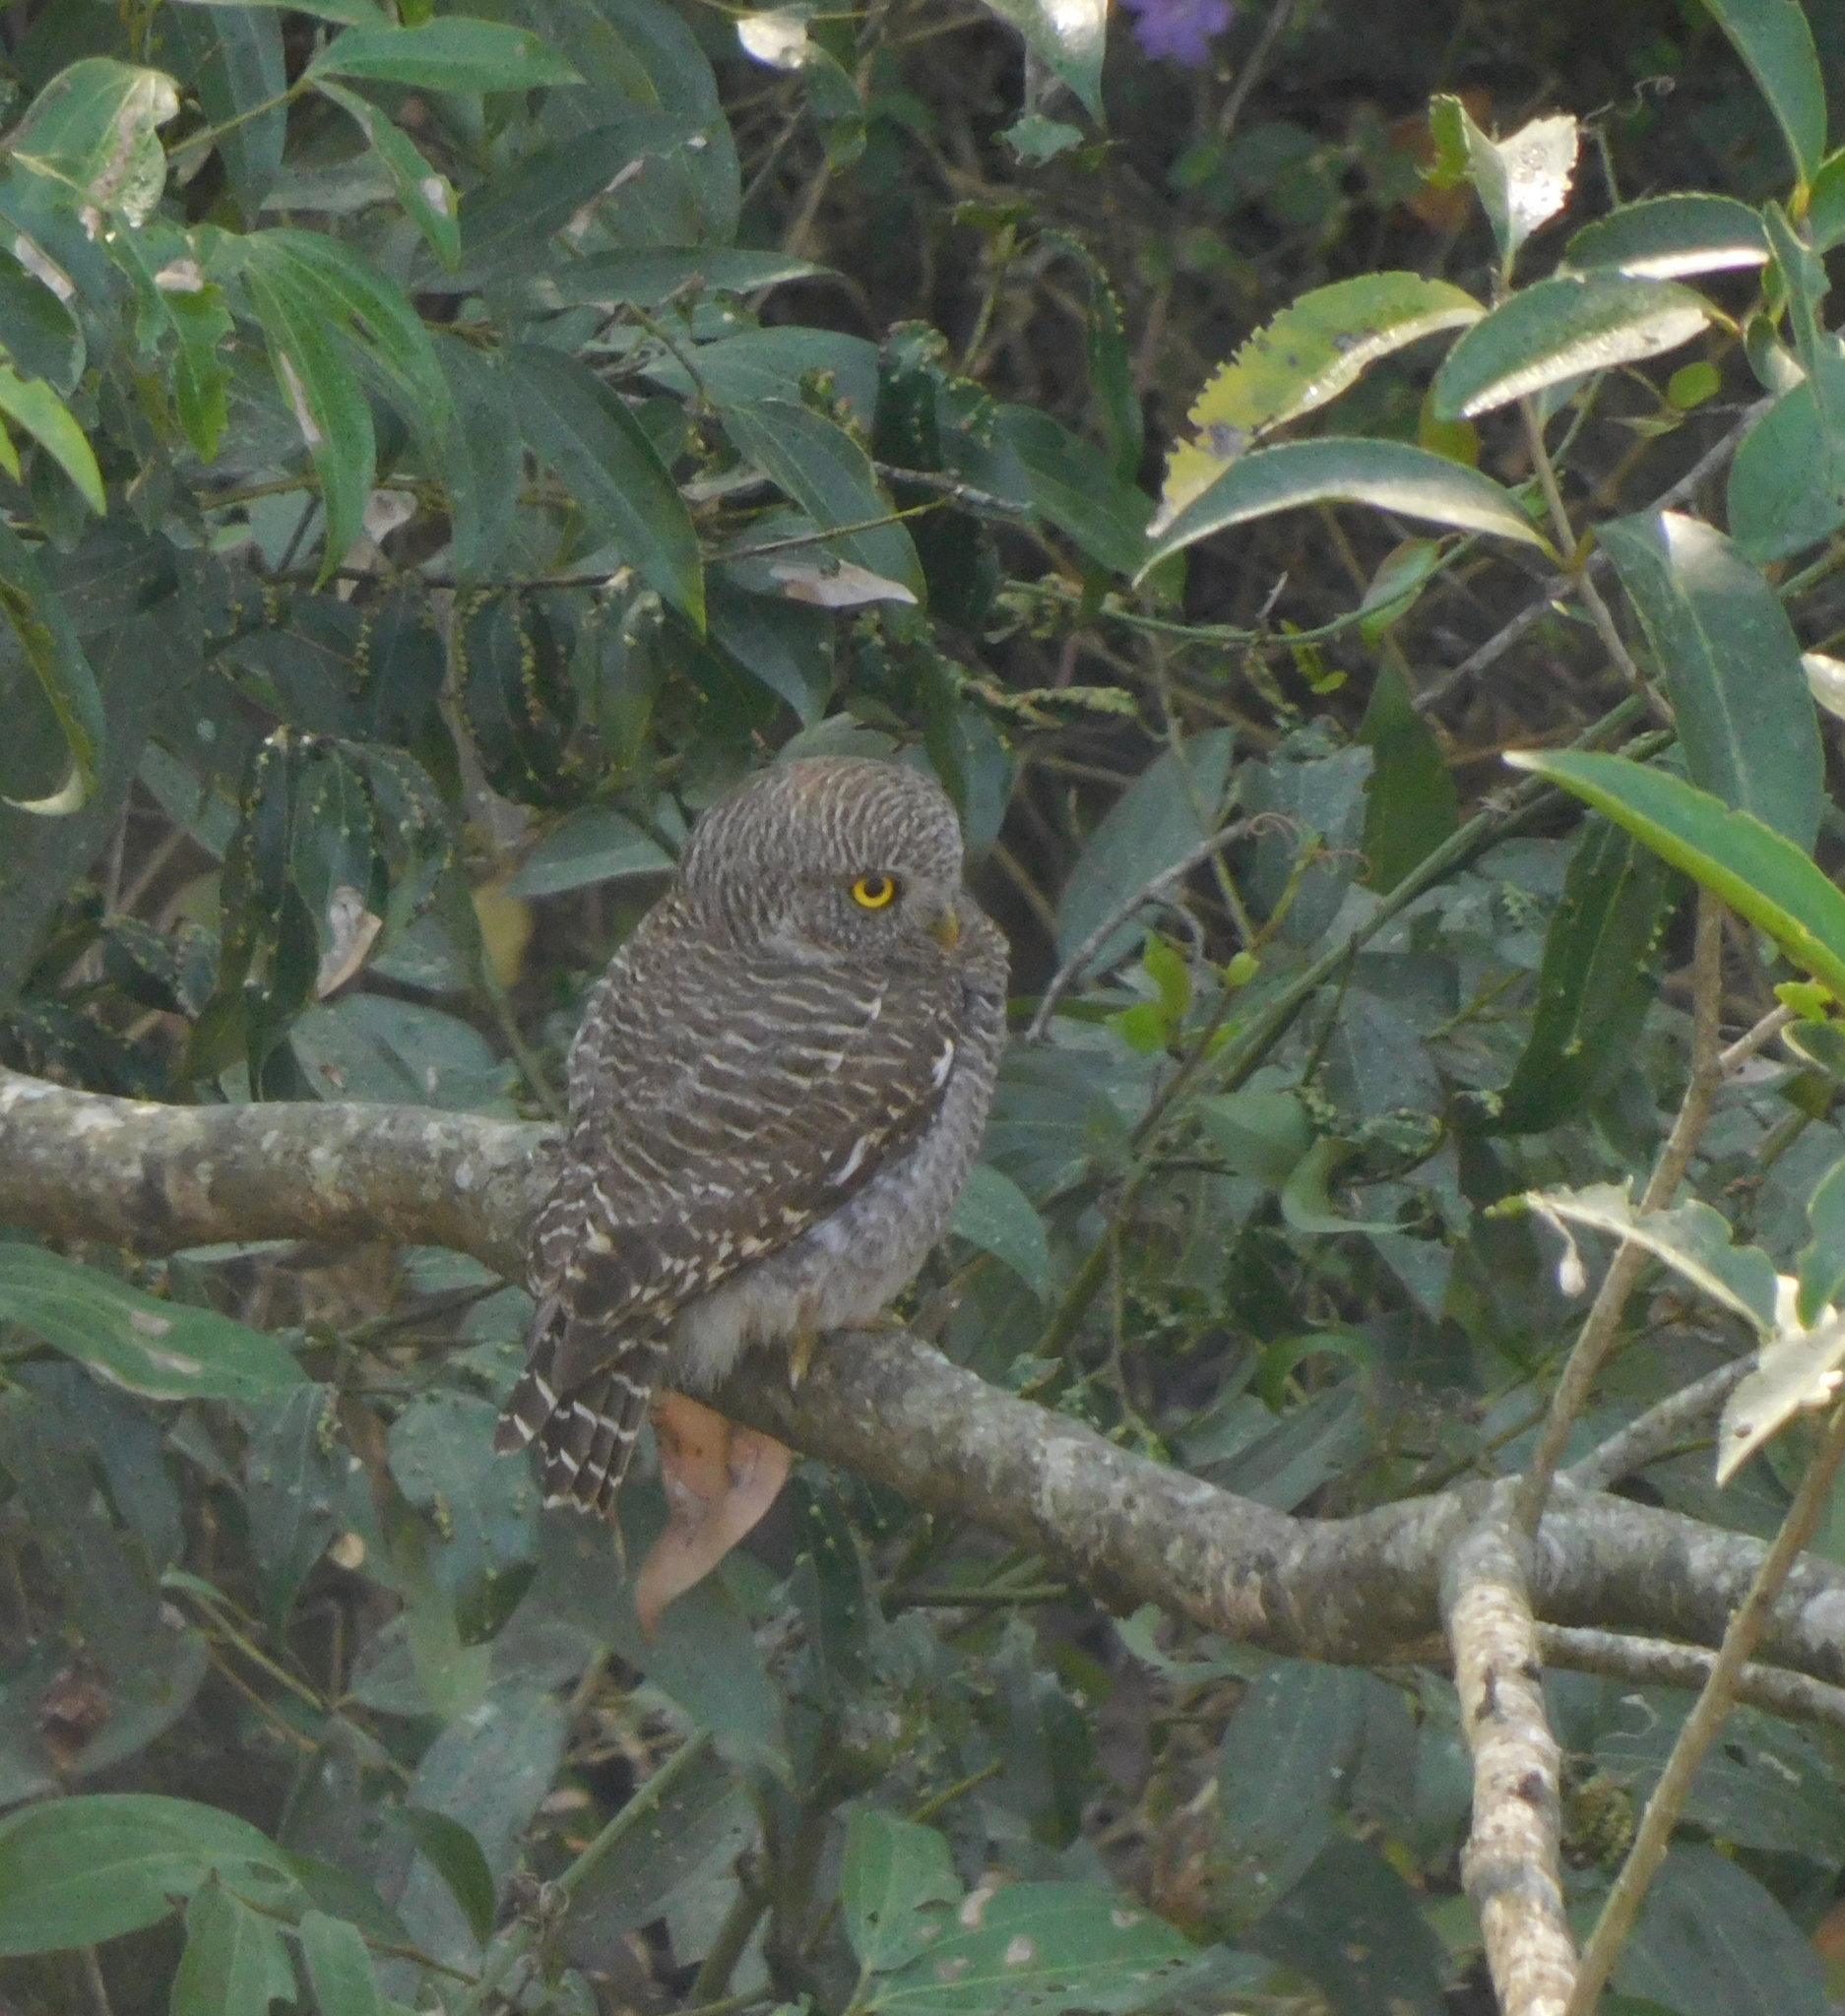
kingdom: Animalia
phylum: Chordata
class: Aves
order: Strigiformes
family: Strigidae
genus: Glaucidium
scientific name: Glaucidium cuculoides
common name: Asian barred owlet
